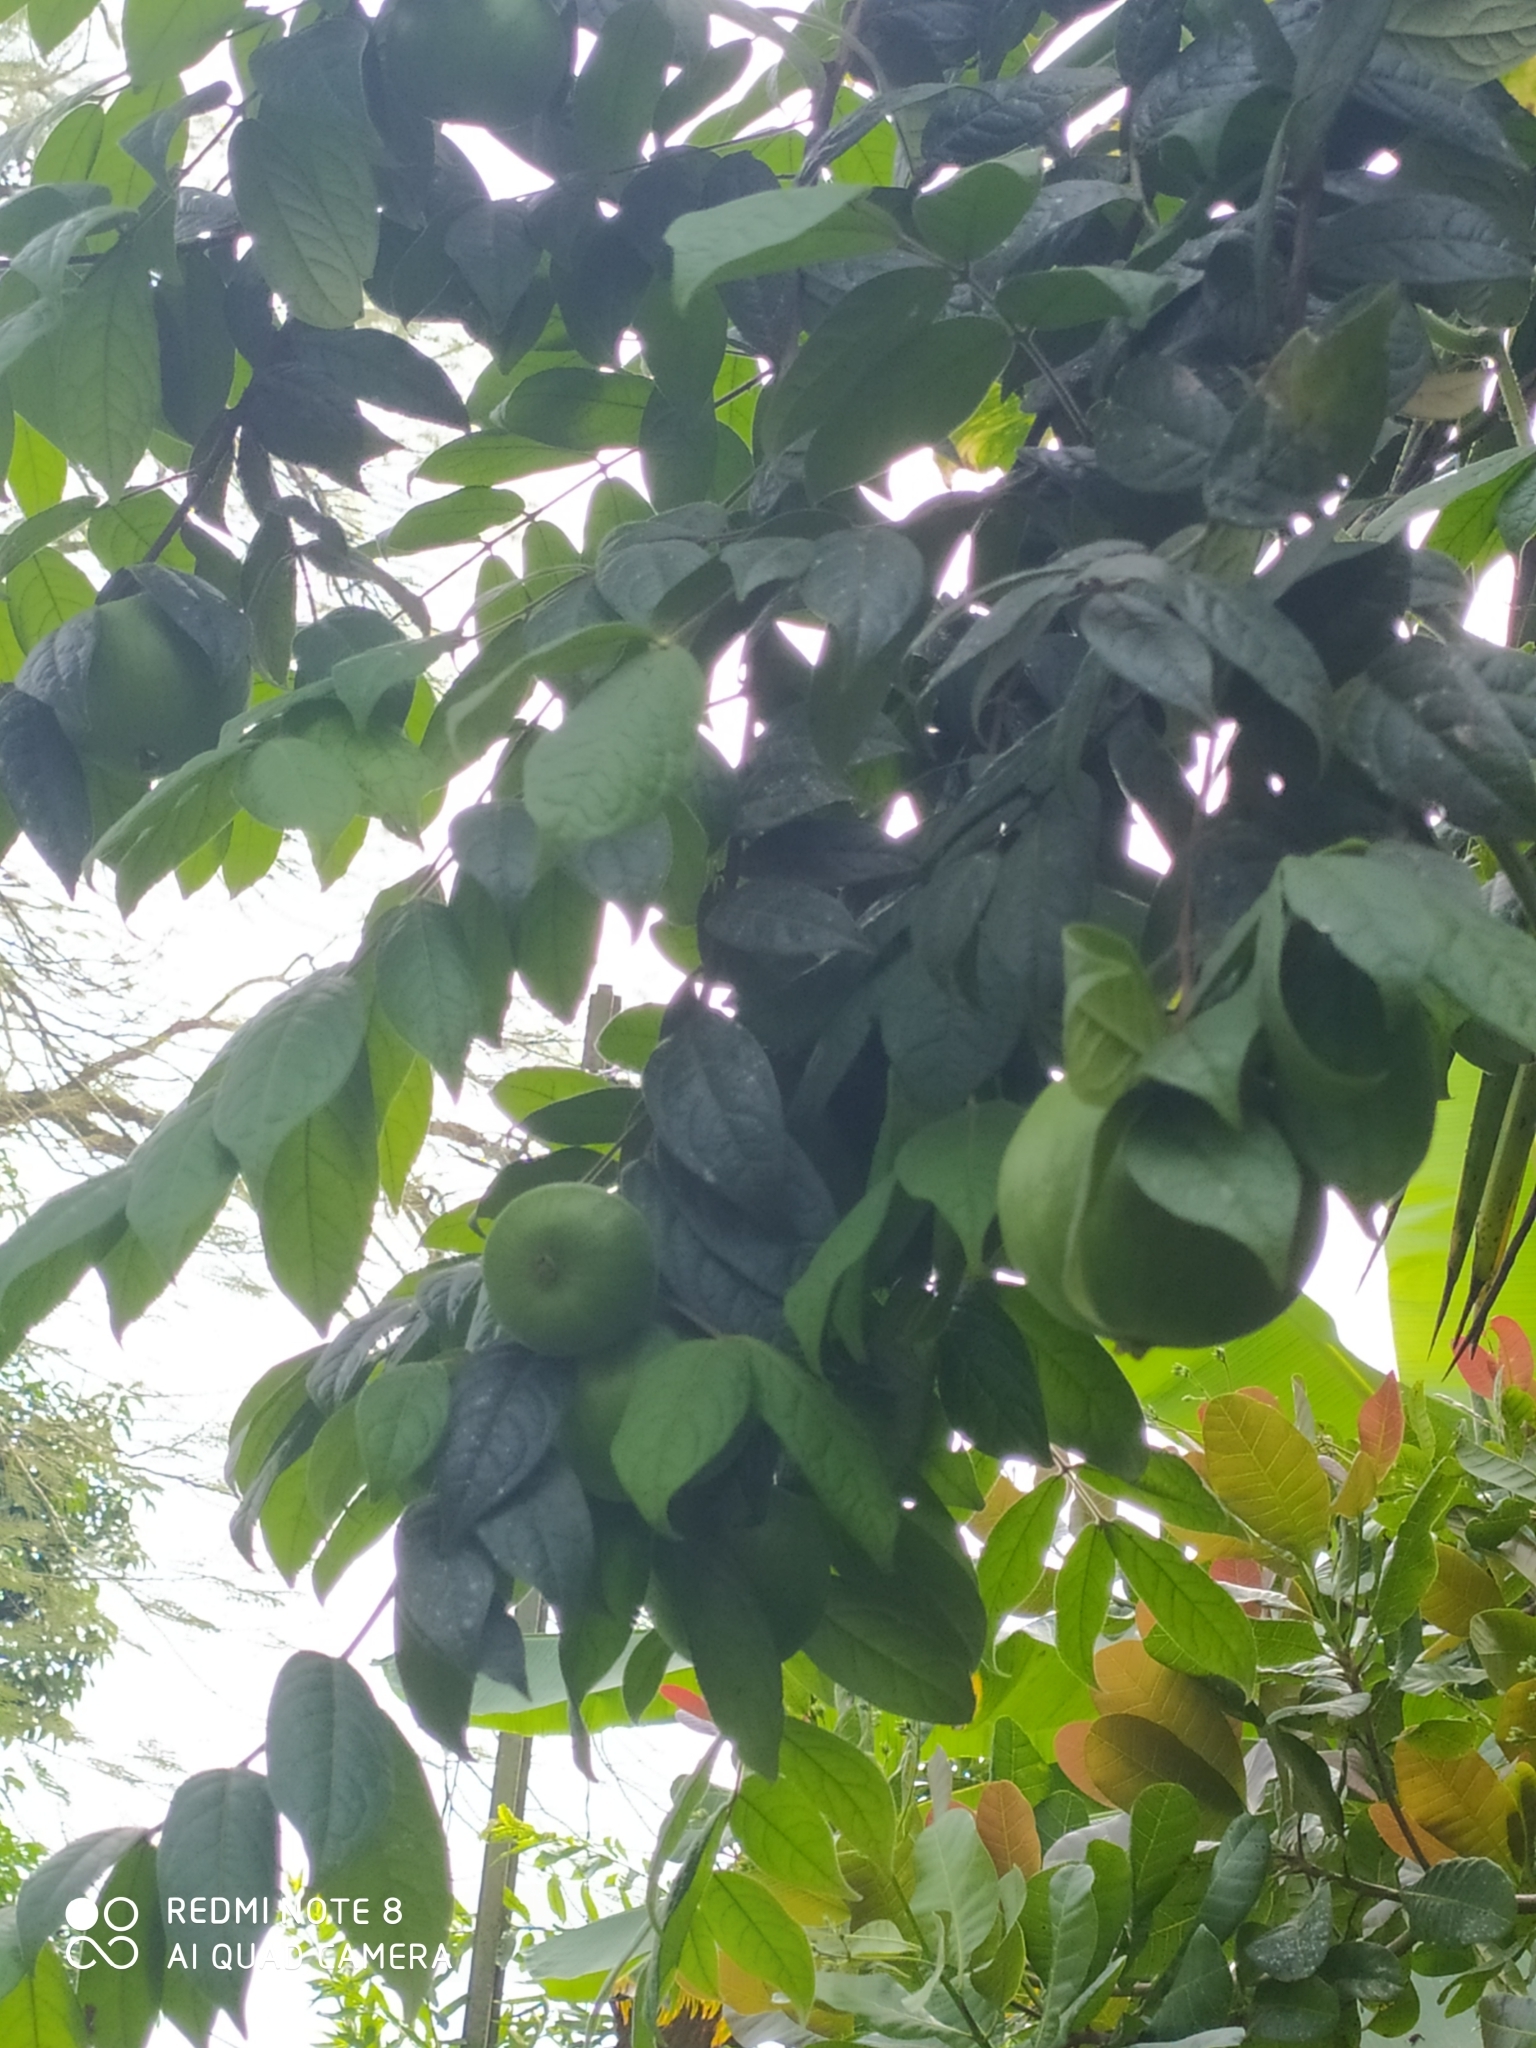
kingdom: Plantae
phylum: Tracheophyta
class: Magnoliopsida
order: Myrtales
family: Myrtaceae
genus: Eugenia
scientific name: Eugenia stipitata
